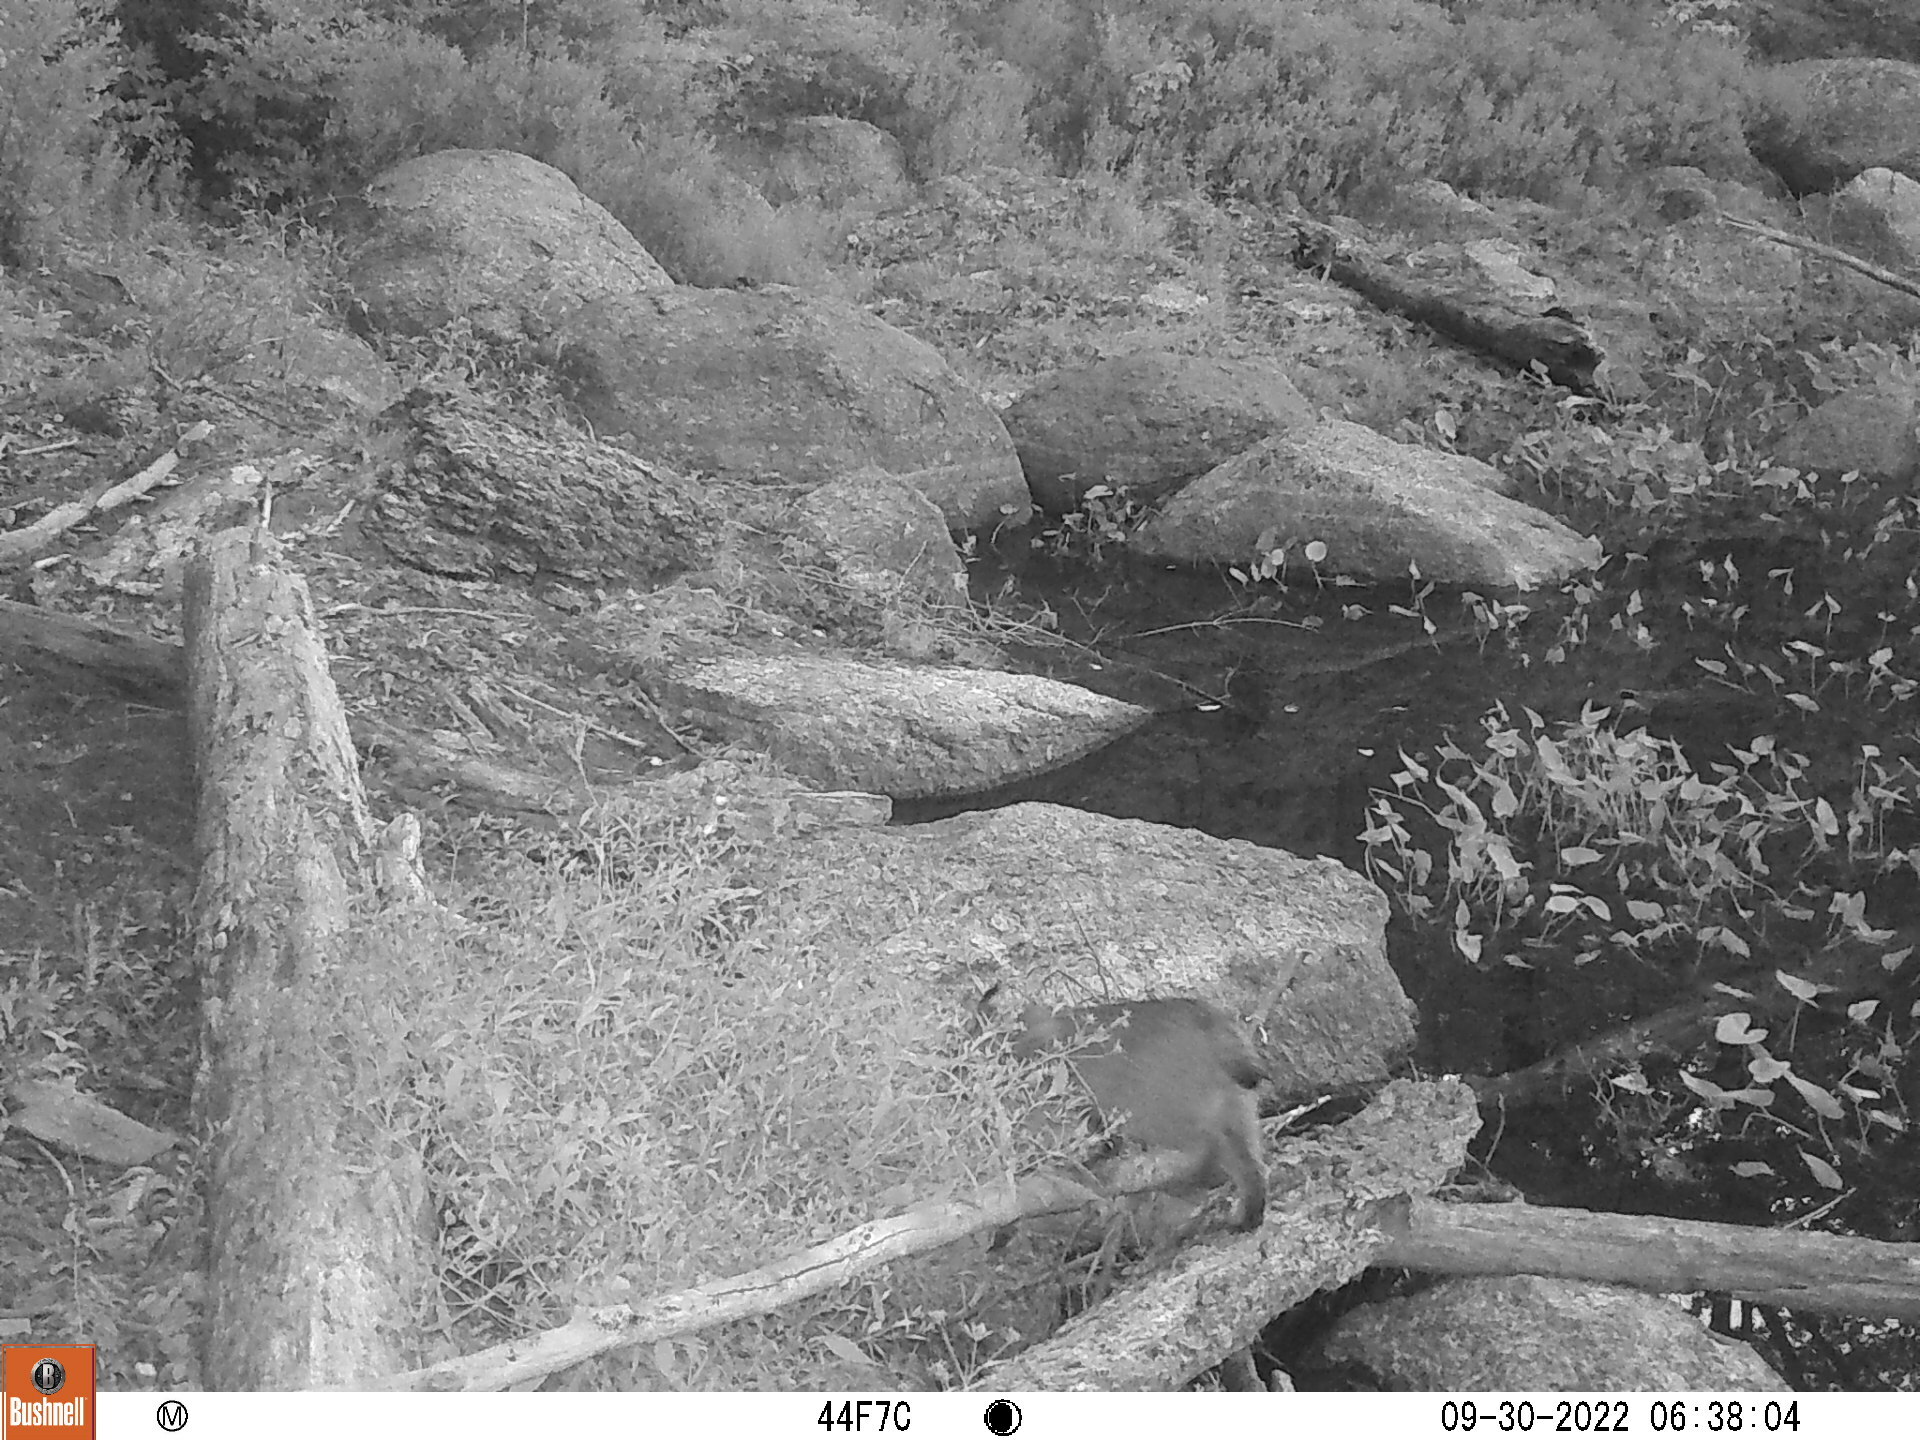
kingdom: Animalia
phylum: Chordata
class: Mammalia
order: Carnivora
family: Felidae
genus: Lynx
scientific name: Lynx rufus
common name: Bobcat
